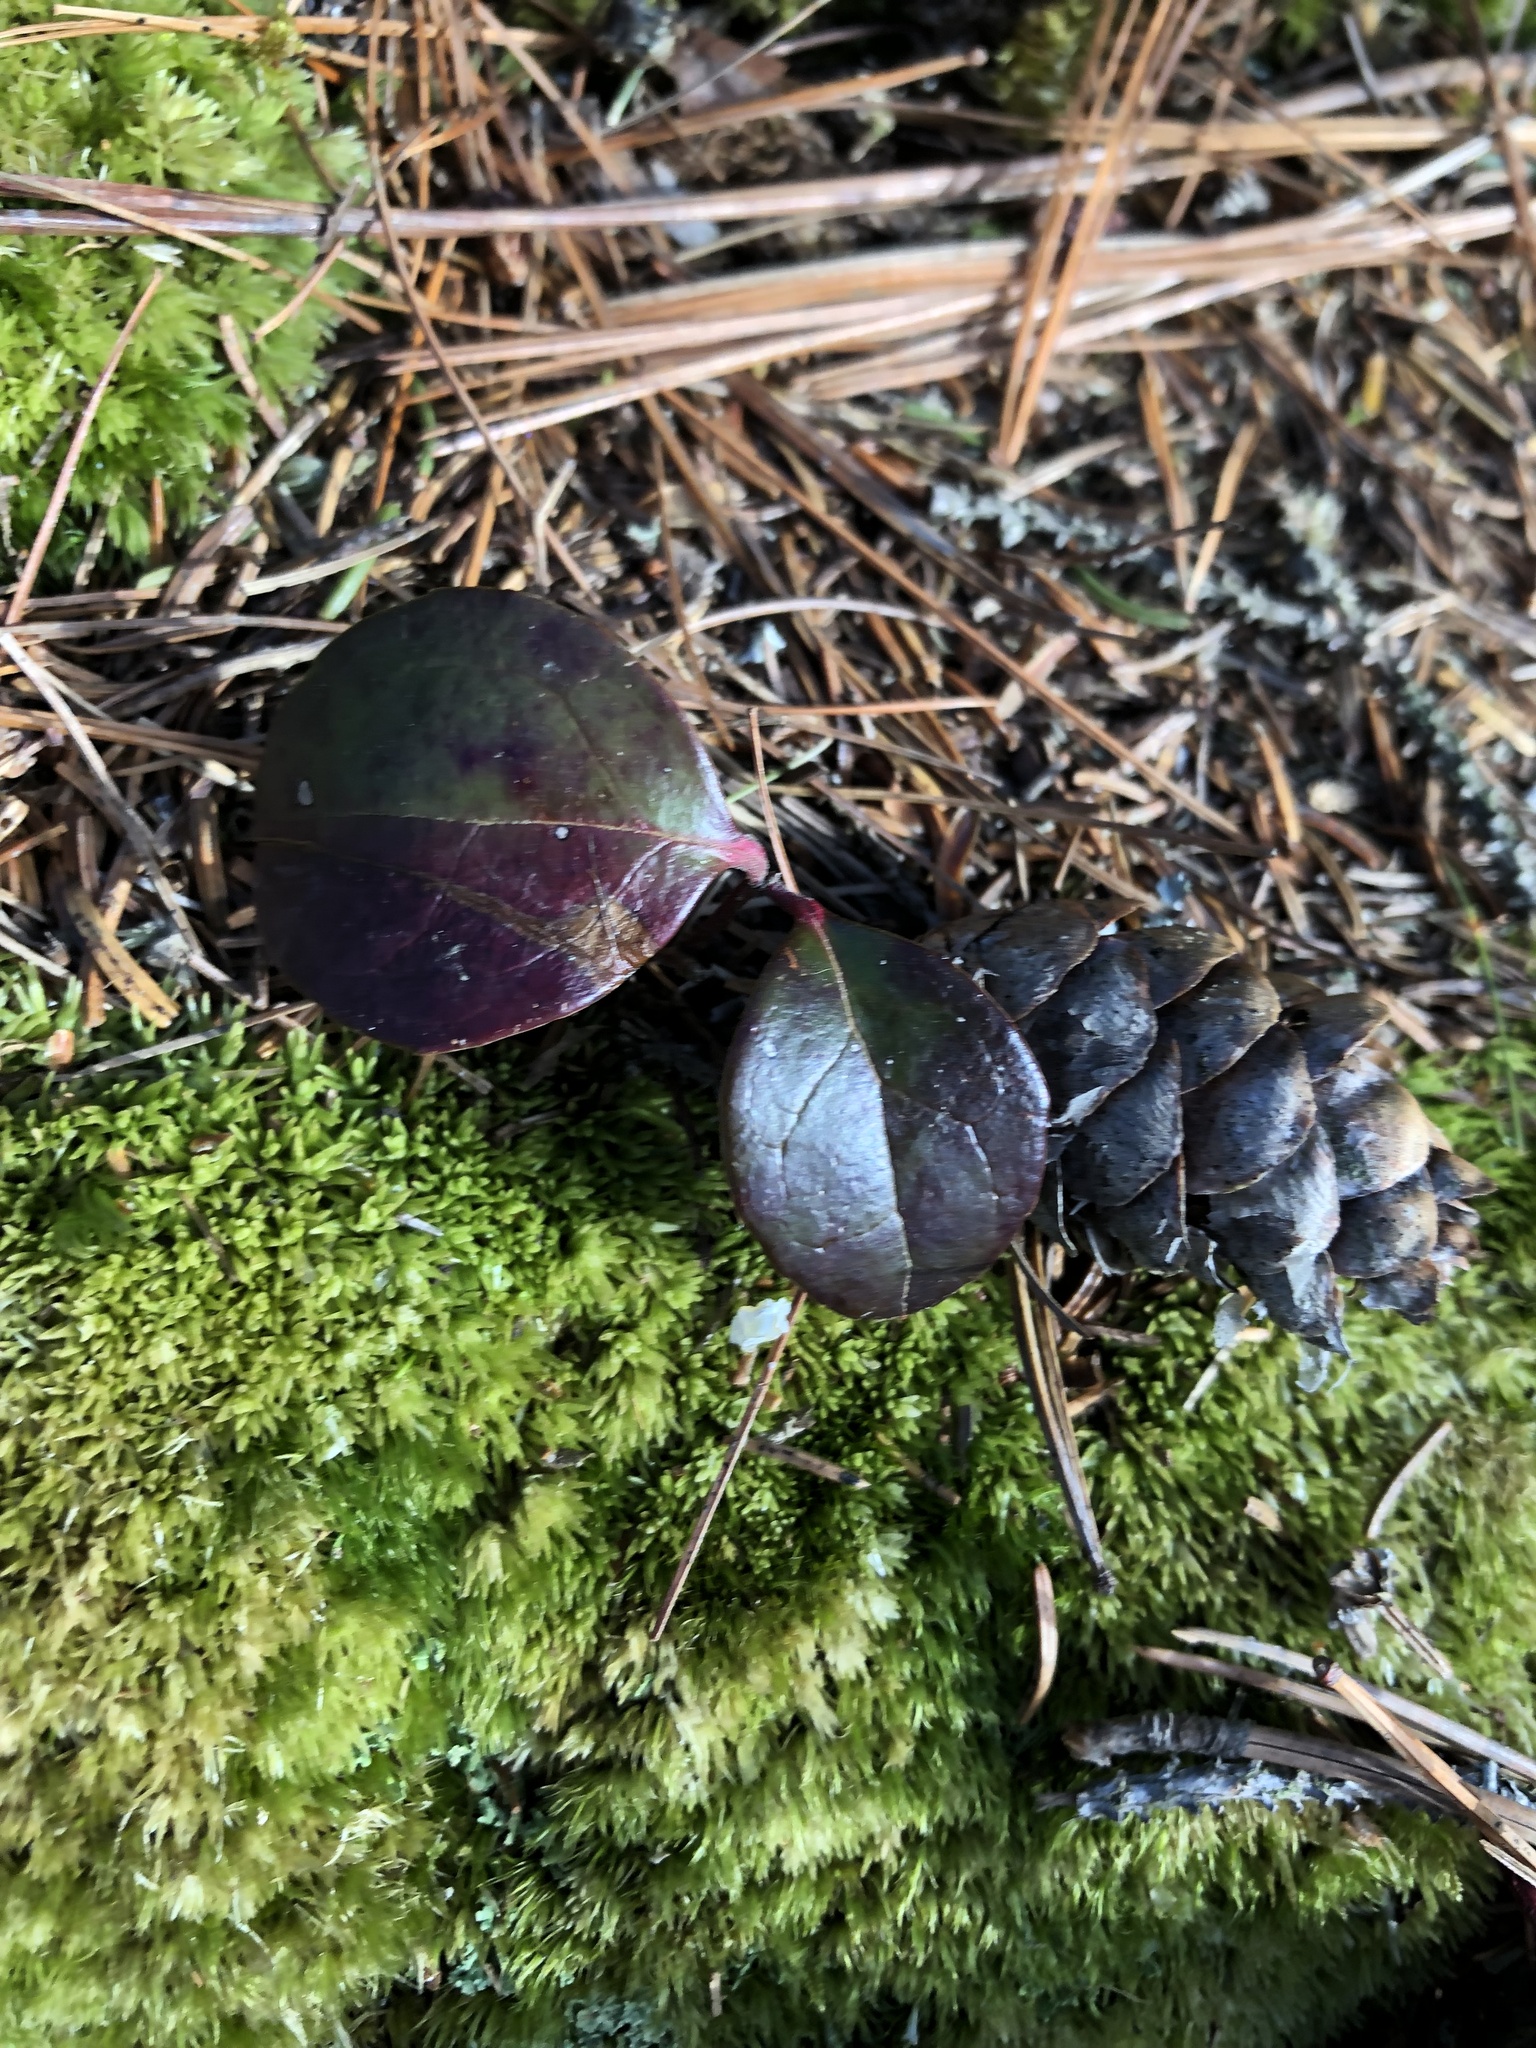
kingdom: Plantae
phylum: Tracheophyta
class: Magnoliopsida
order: Ericales
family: Ericaceae
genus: Gaultheria
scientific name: Gaultheria procumbens
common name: Checkerberry
